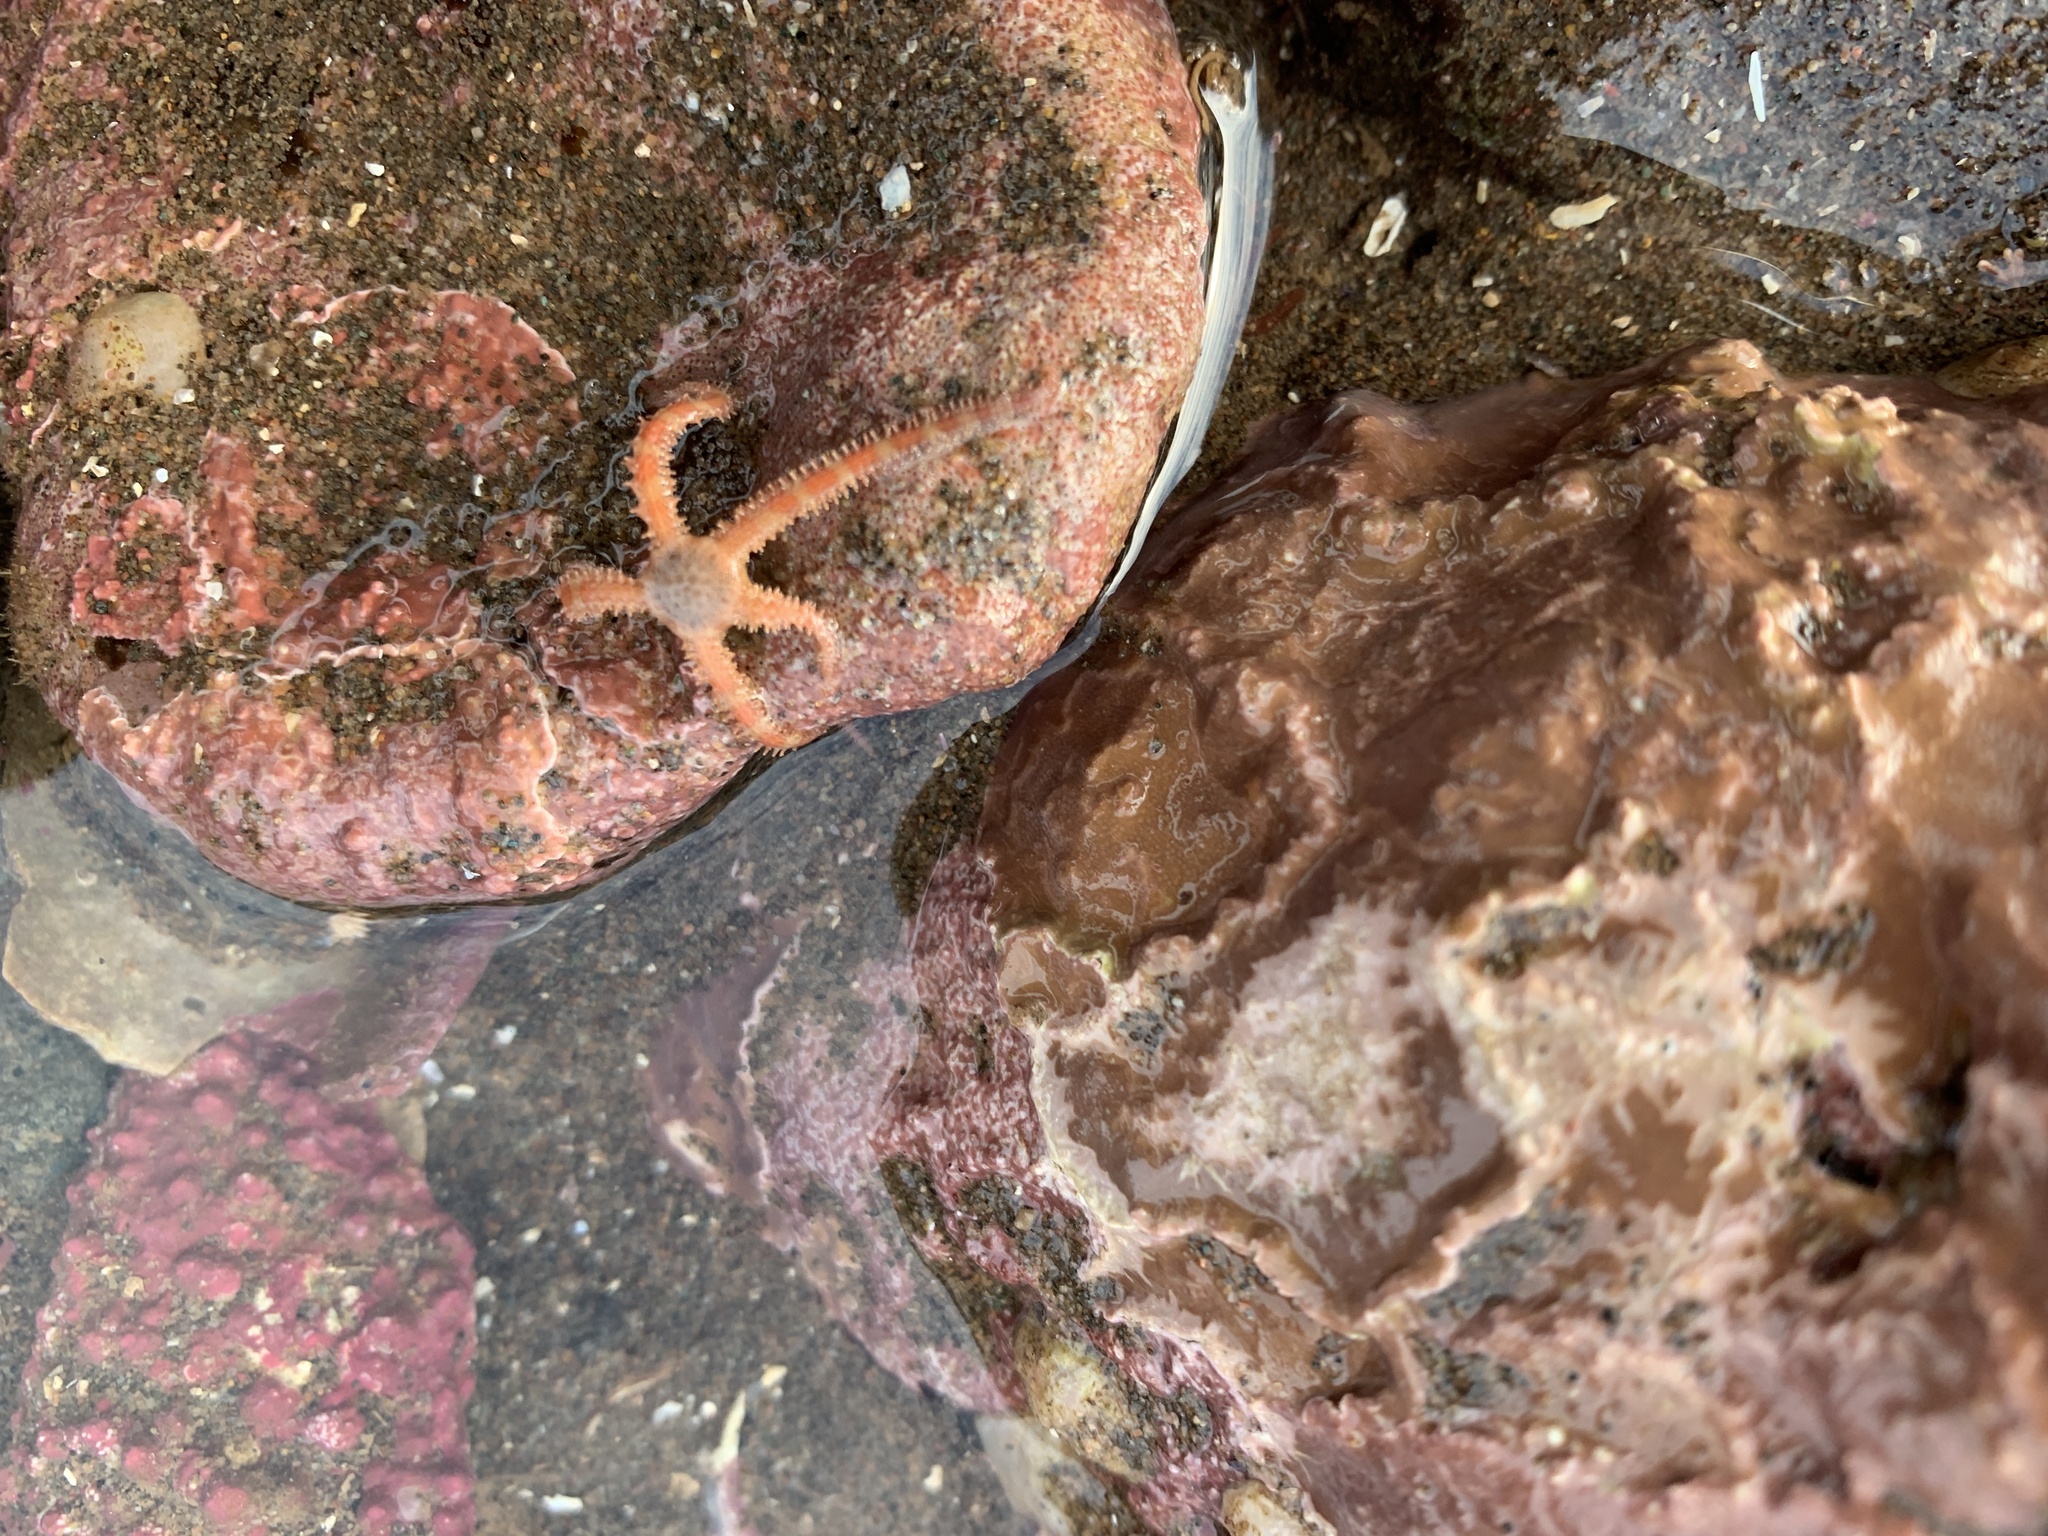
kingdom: Animalia
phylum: Echinodermata
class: Ophiuroidea
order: Amphilepidida
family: Ophiopholidae
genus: Ophiopholis
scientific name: Ophiopholis aculeata
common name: Crevice brittlestar
